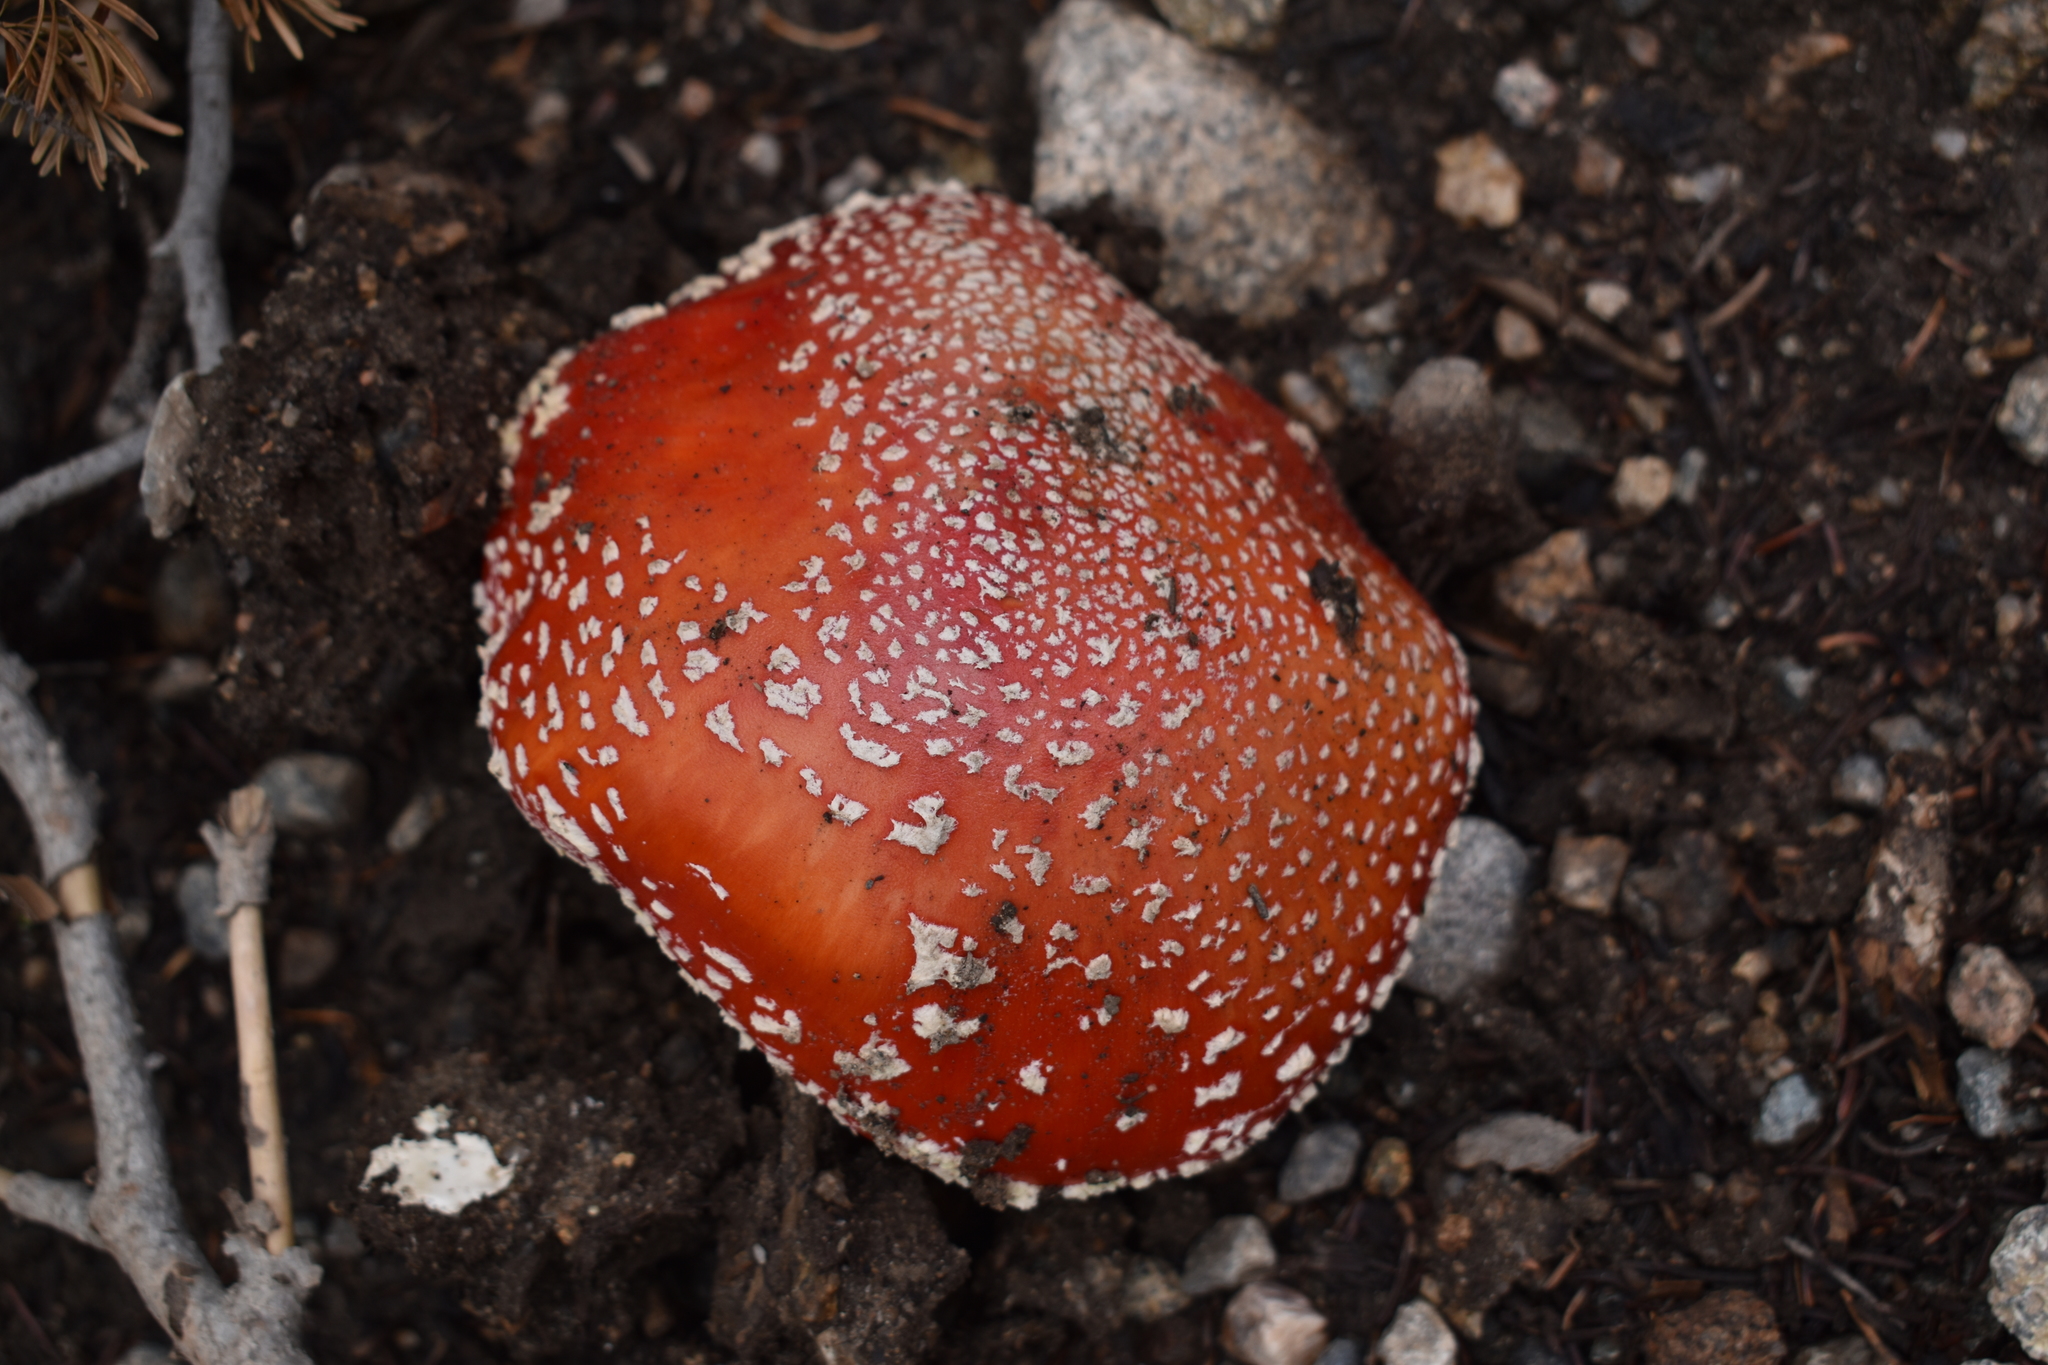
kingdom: Fungi
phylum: Basidiomycota
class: Agaricomycetes
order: Agaricales
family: Amanitaceae
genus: Amanita
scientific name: Amanita muscaria
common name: Fly agaric
